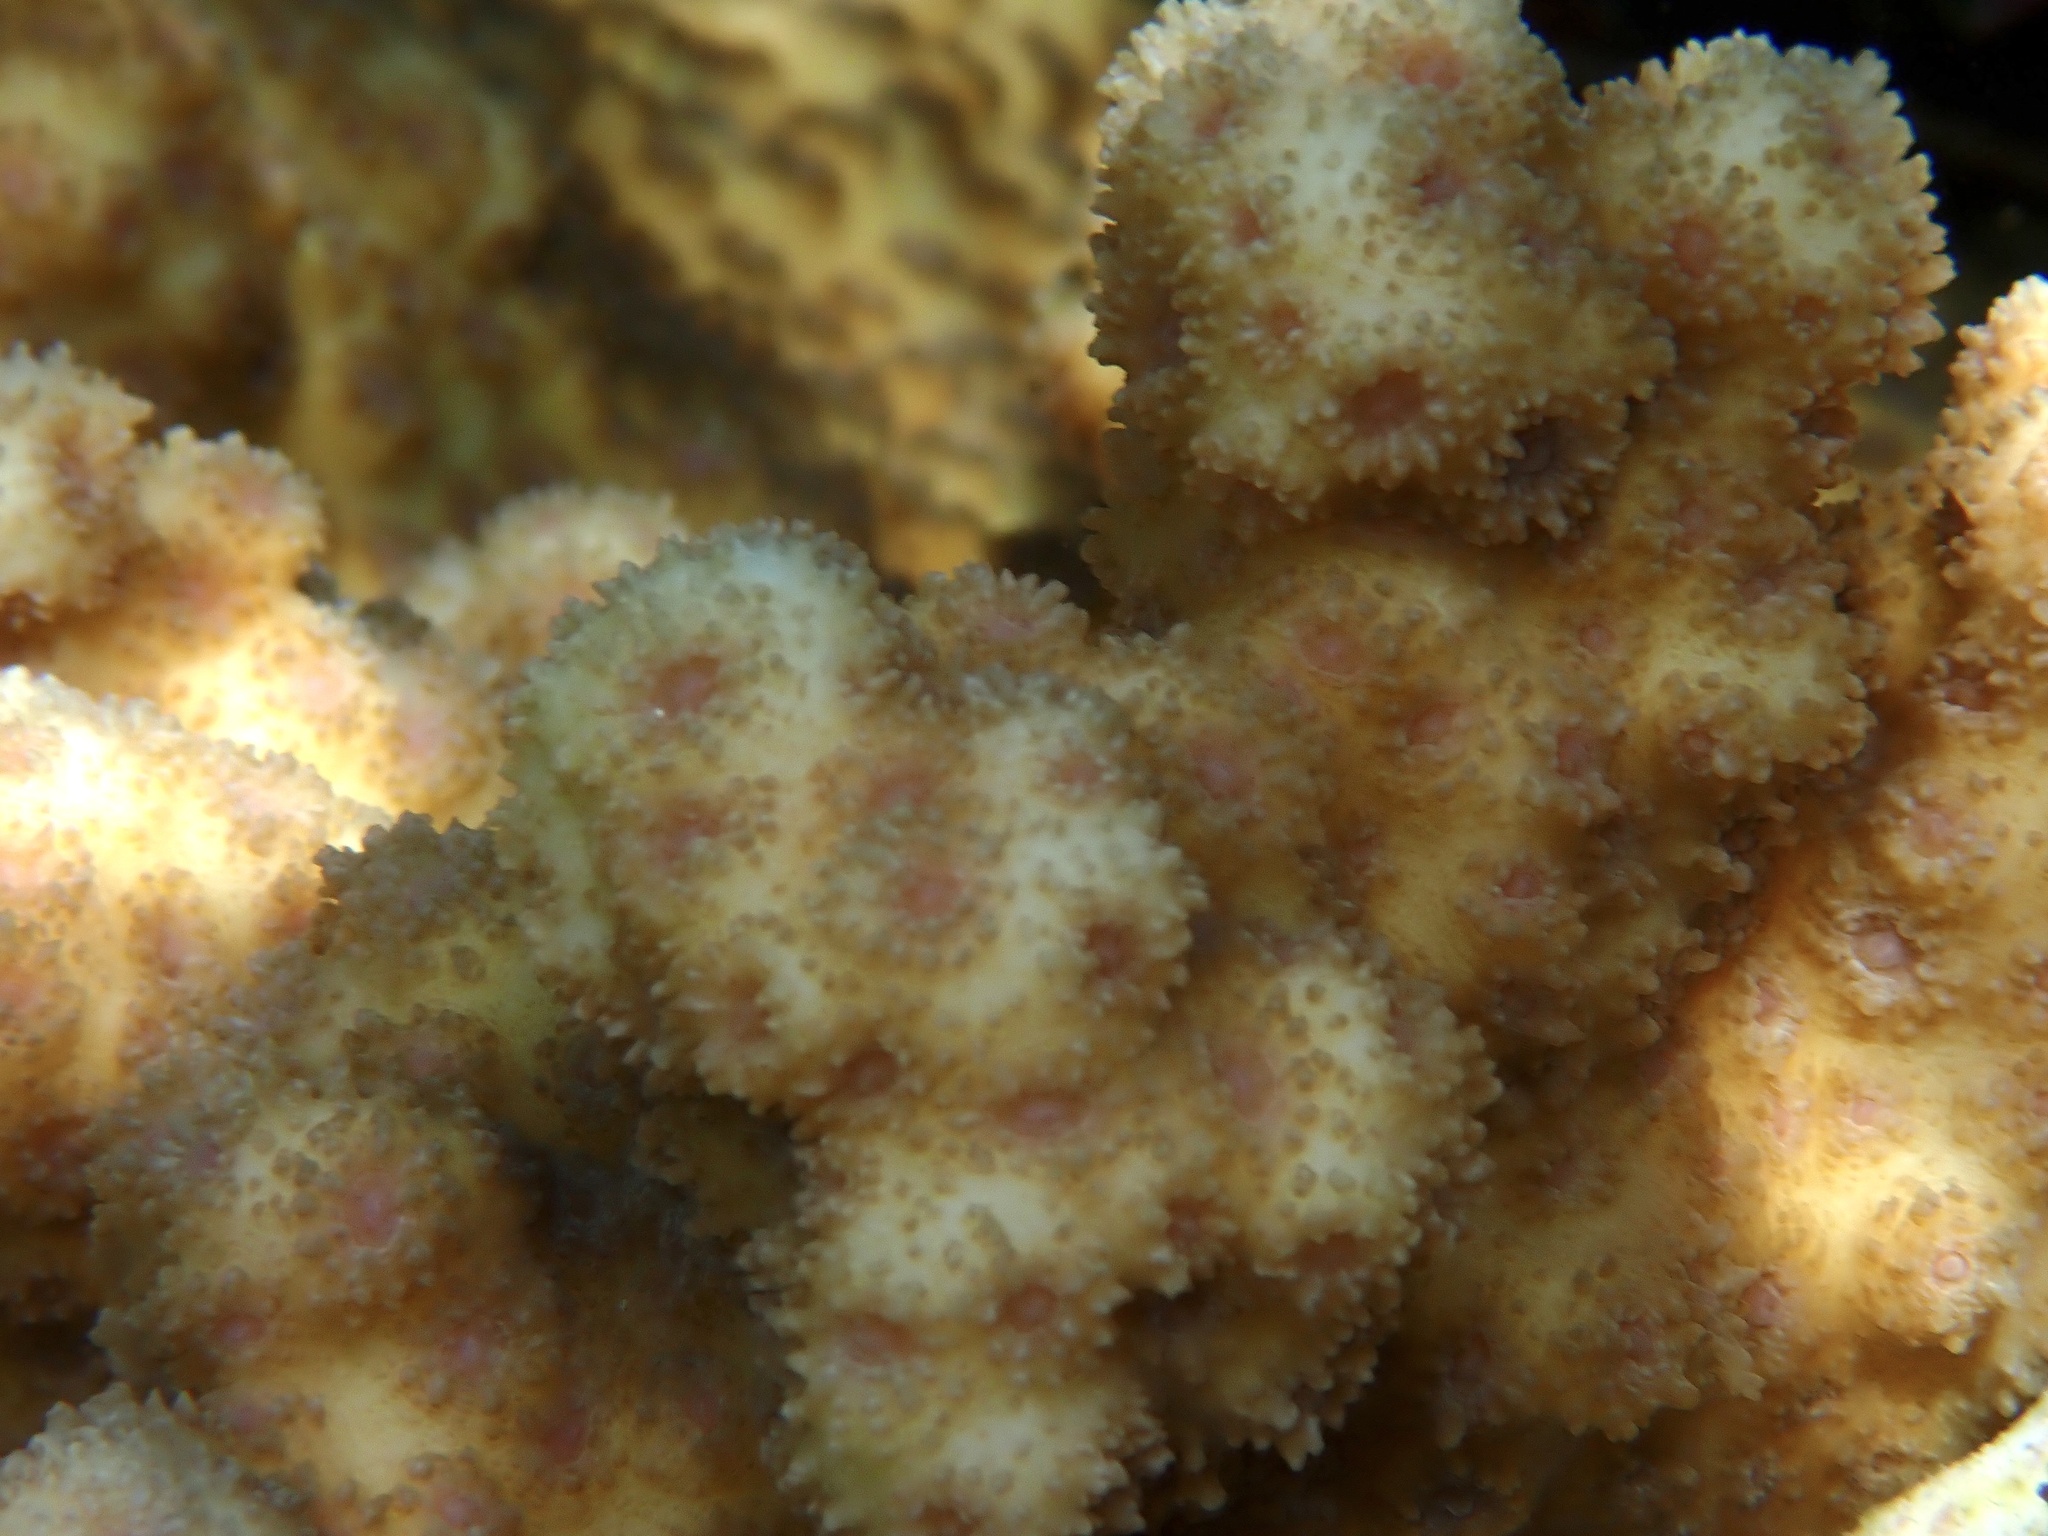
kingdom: Animalia
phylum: Cnidaria
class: Anthozoa
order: Scleractinia
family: Merulinidae
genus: Echinopora
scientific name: Echinopora hirsutissima
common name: Hedgehog coral
